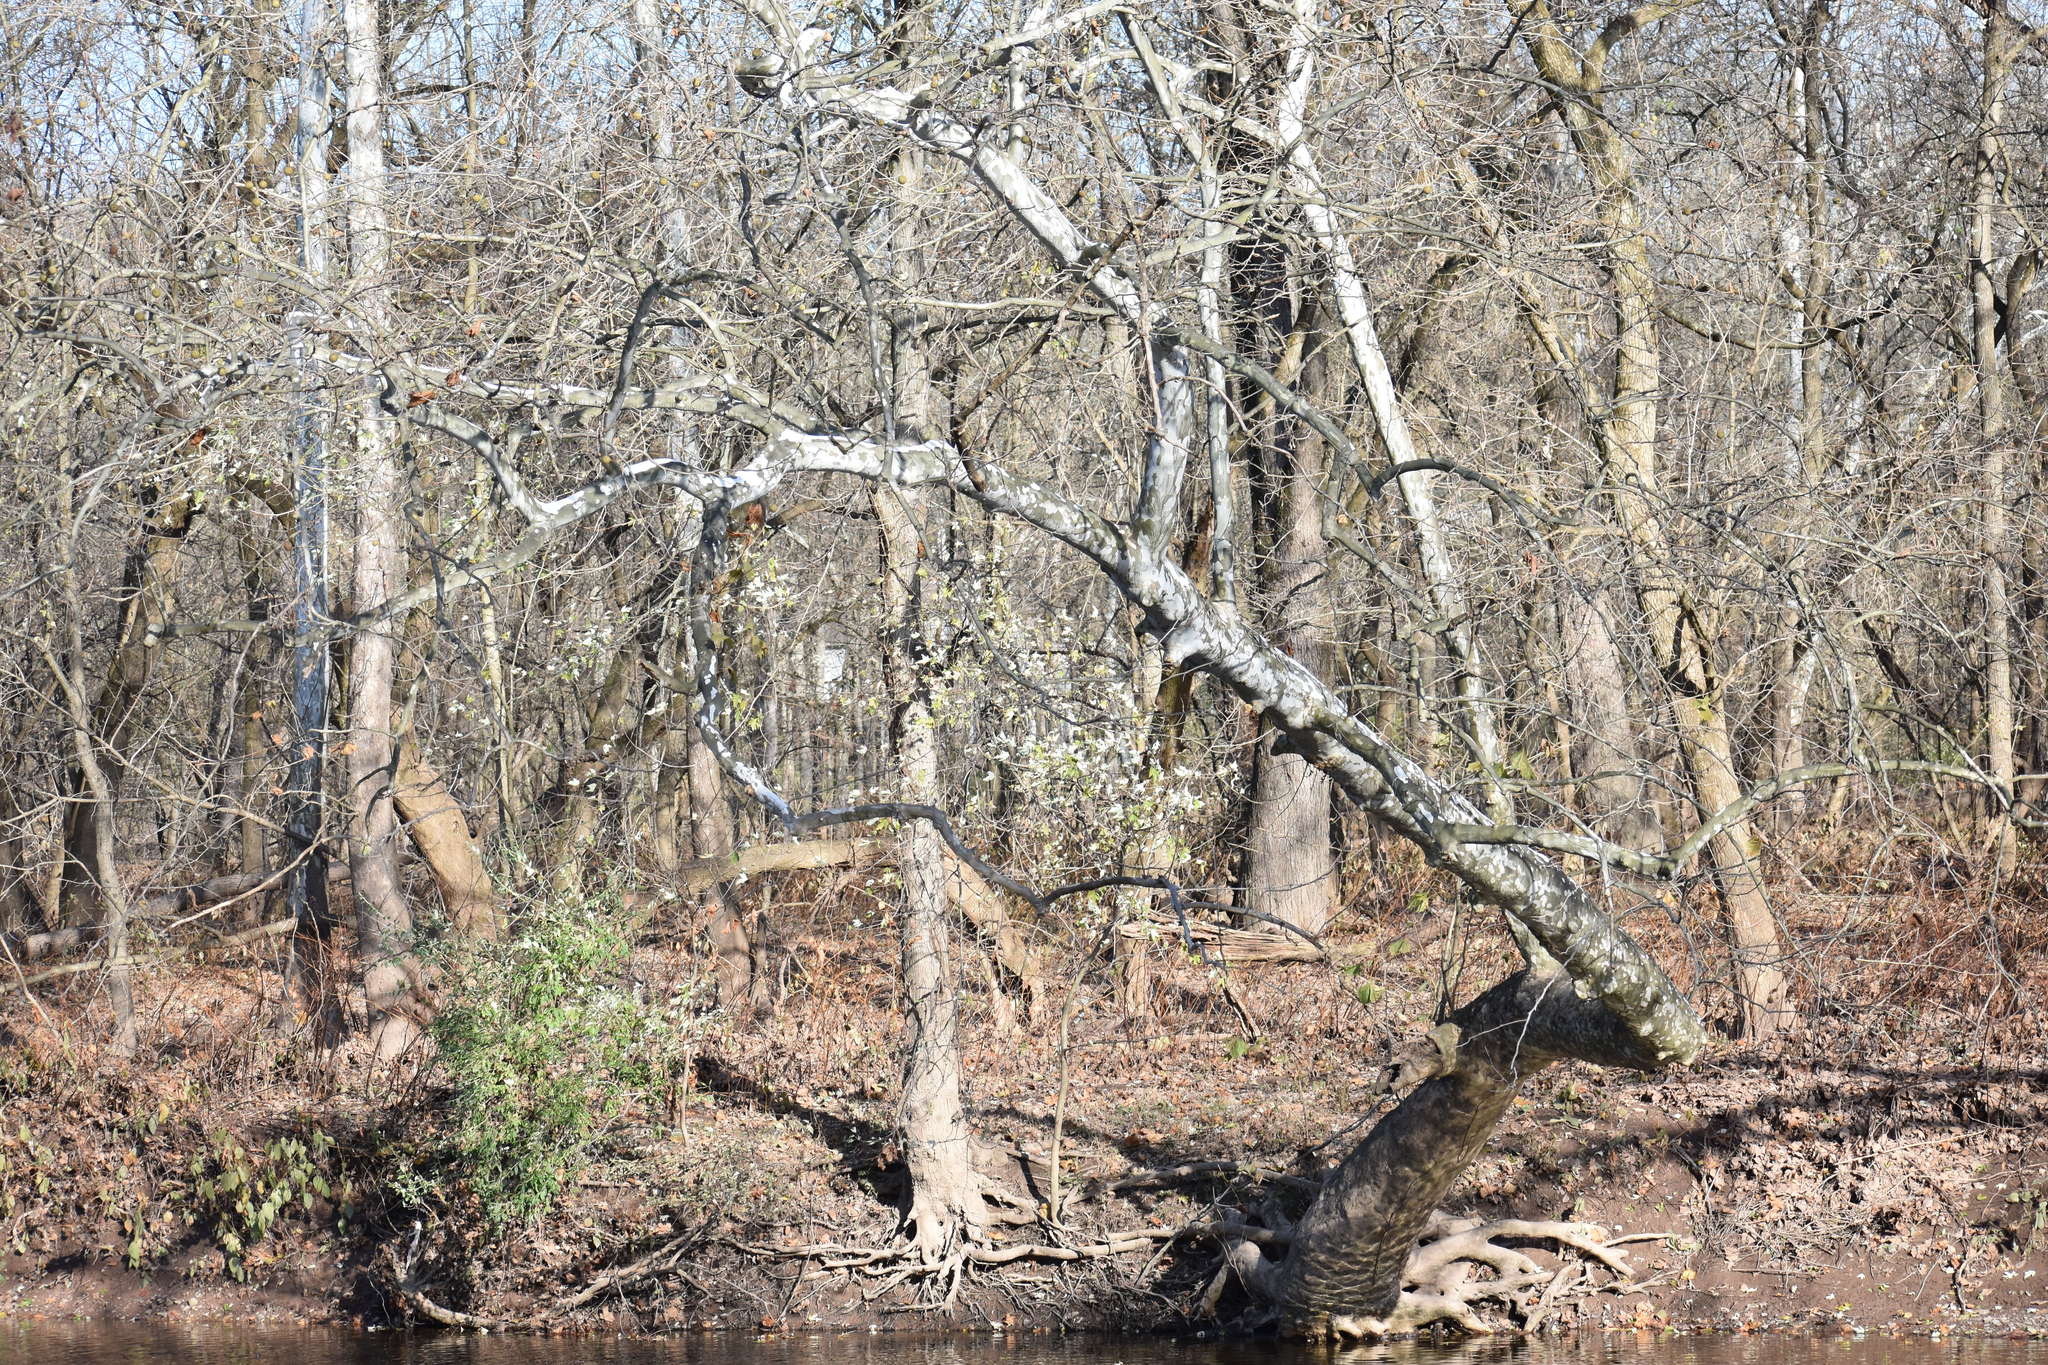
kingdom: Plantae
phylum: Tracheophyta
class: Magnoliopsida
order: Proteales
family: Platanaceae
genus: Platanus
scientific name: Platanus occidentalis
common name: American sycamore
